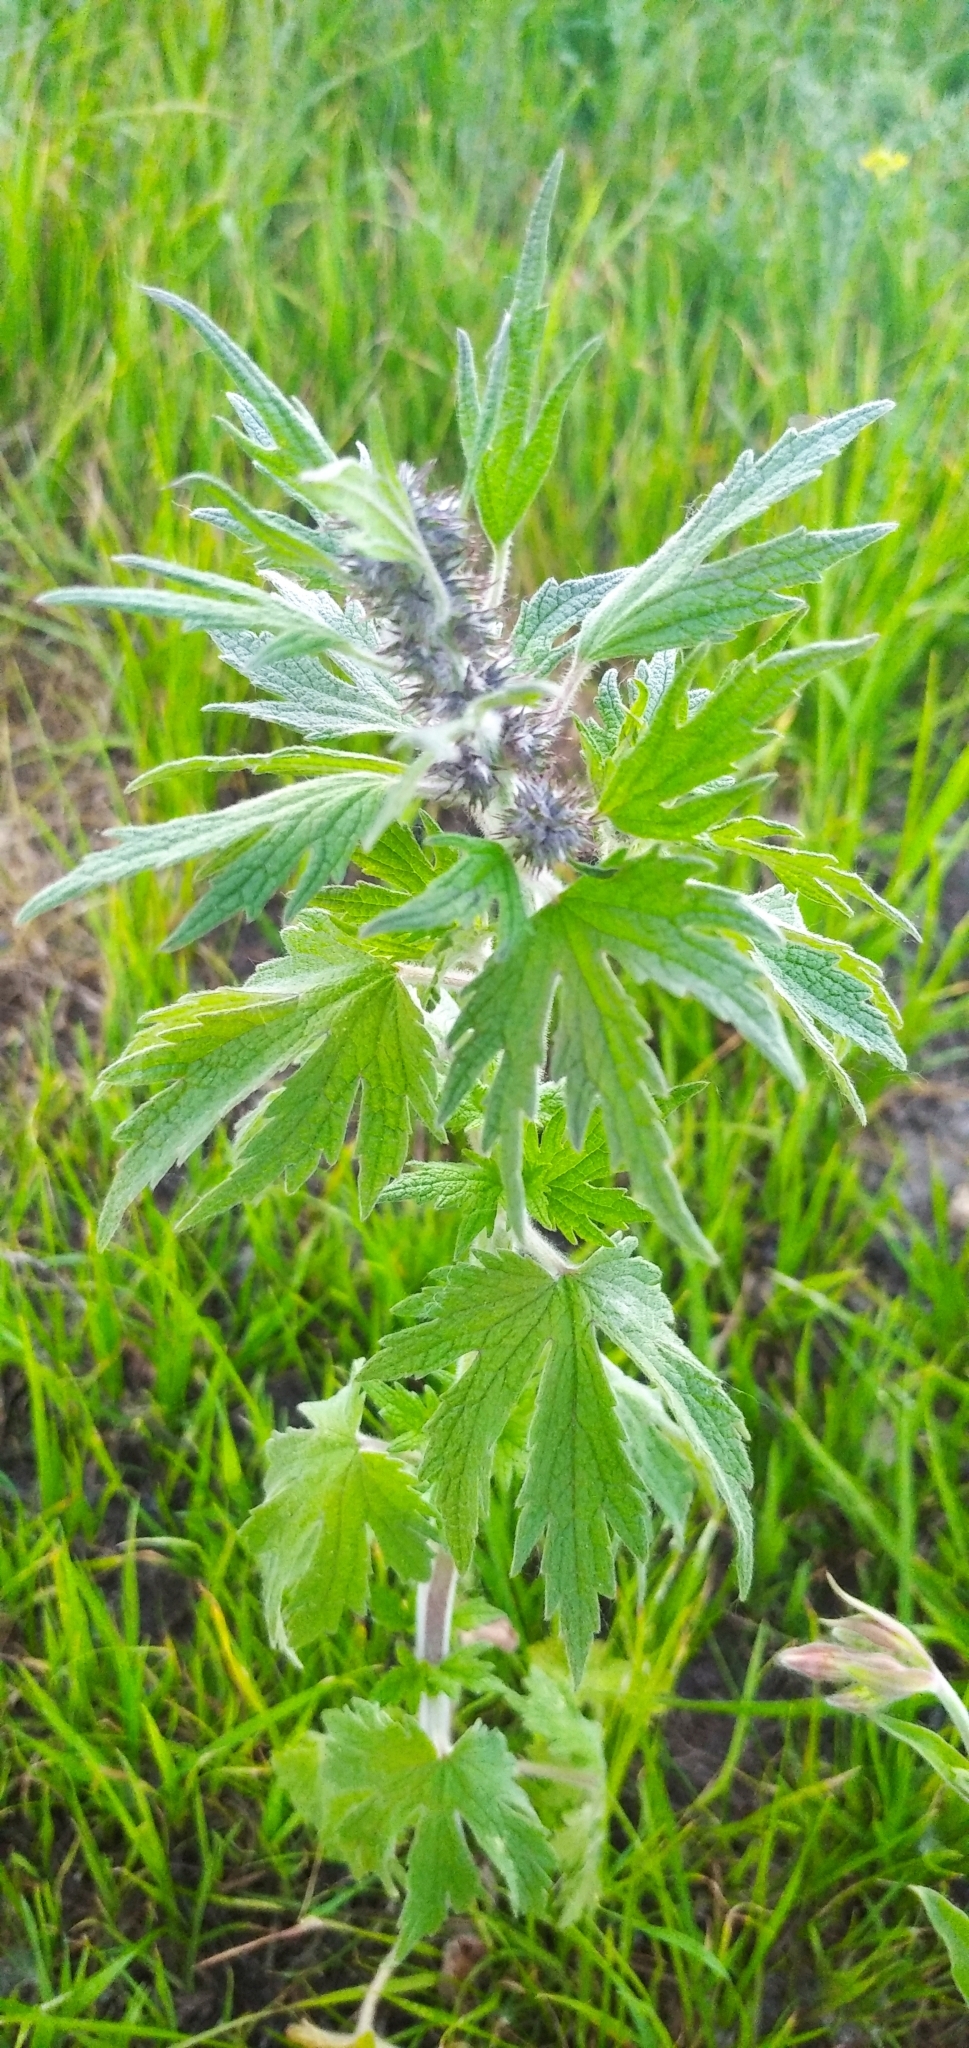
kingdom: Plantae
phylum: Tracheophyta
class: Magnoliopsida
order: Lamiales
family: Lamiaceae
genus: Leonurus
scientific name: Leonurus quinquelobatus
